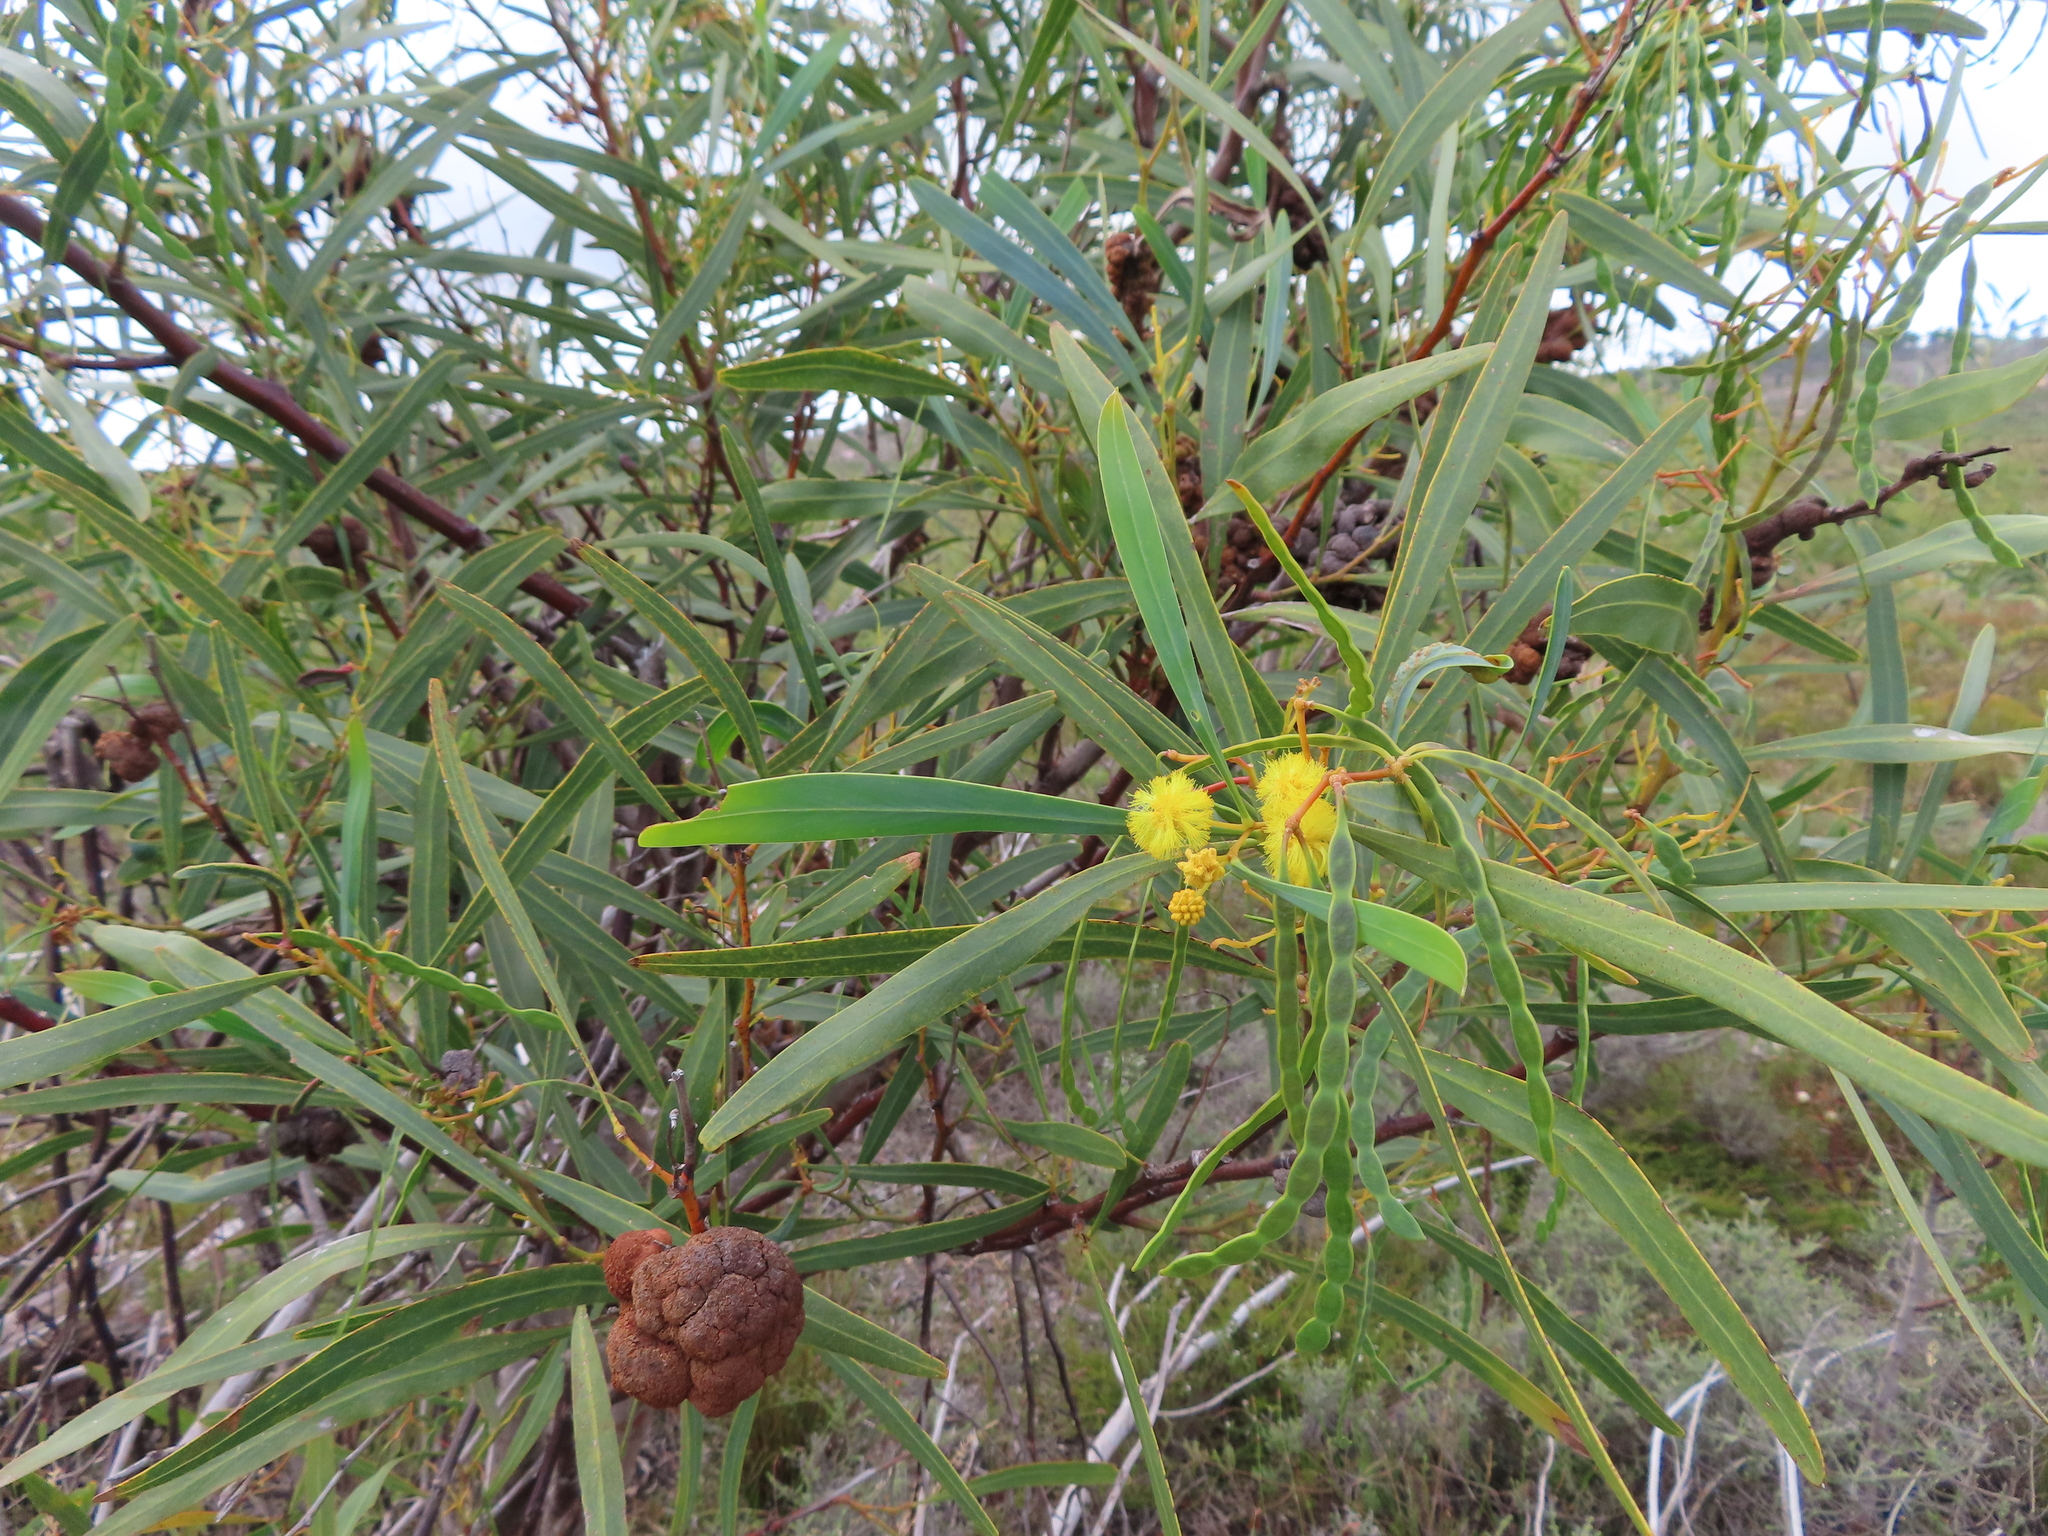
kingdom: Plantae
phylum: Tracheophyta
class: Magnoliopsida
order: Fabales
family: Fabaceae
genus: Acacia
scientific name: Acacia saligna
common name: Orange wattle
